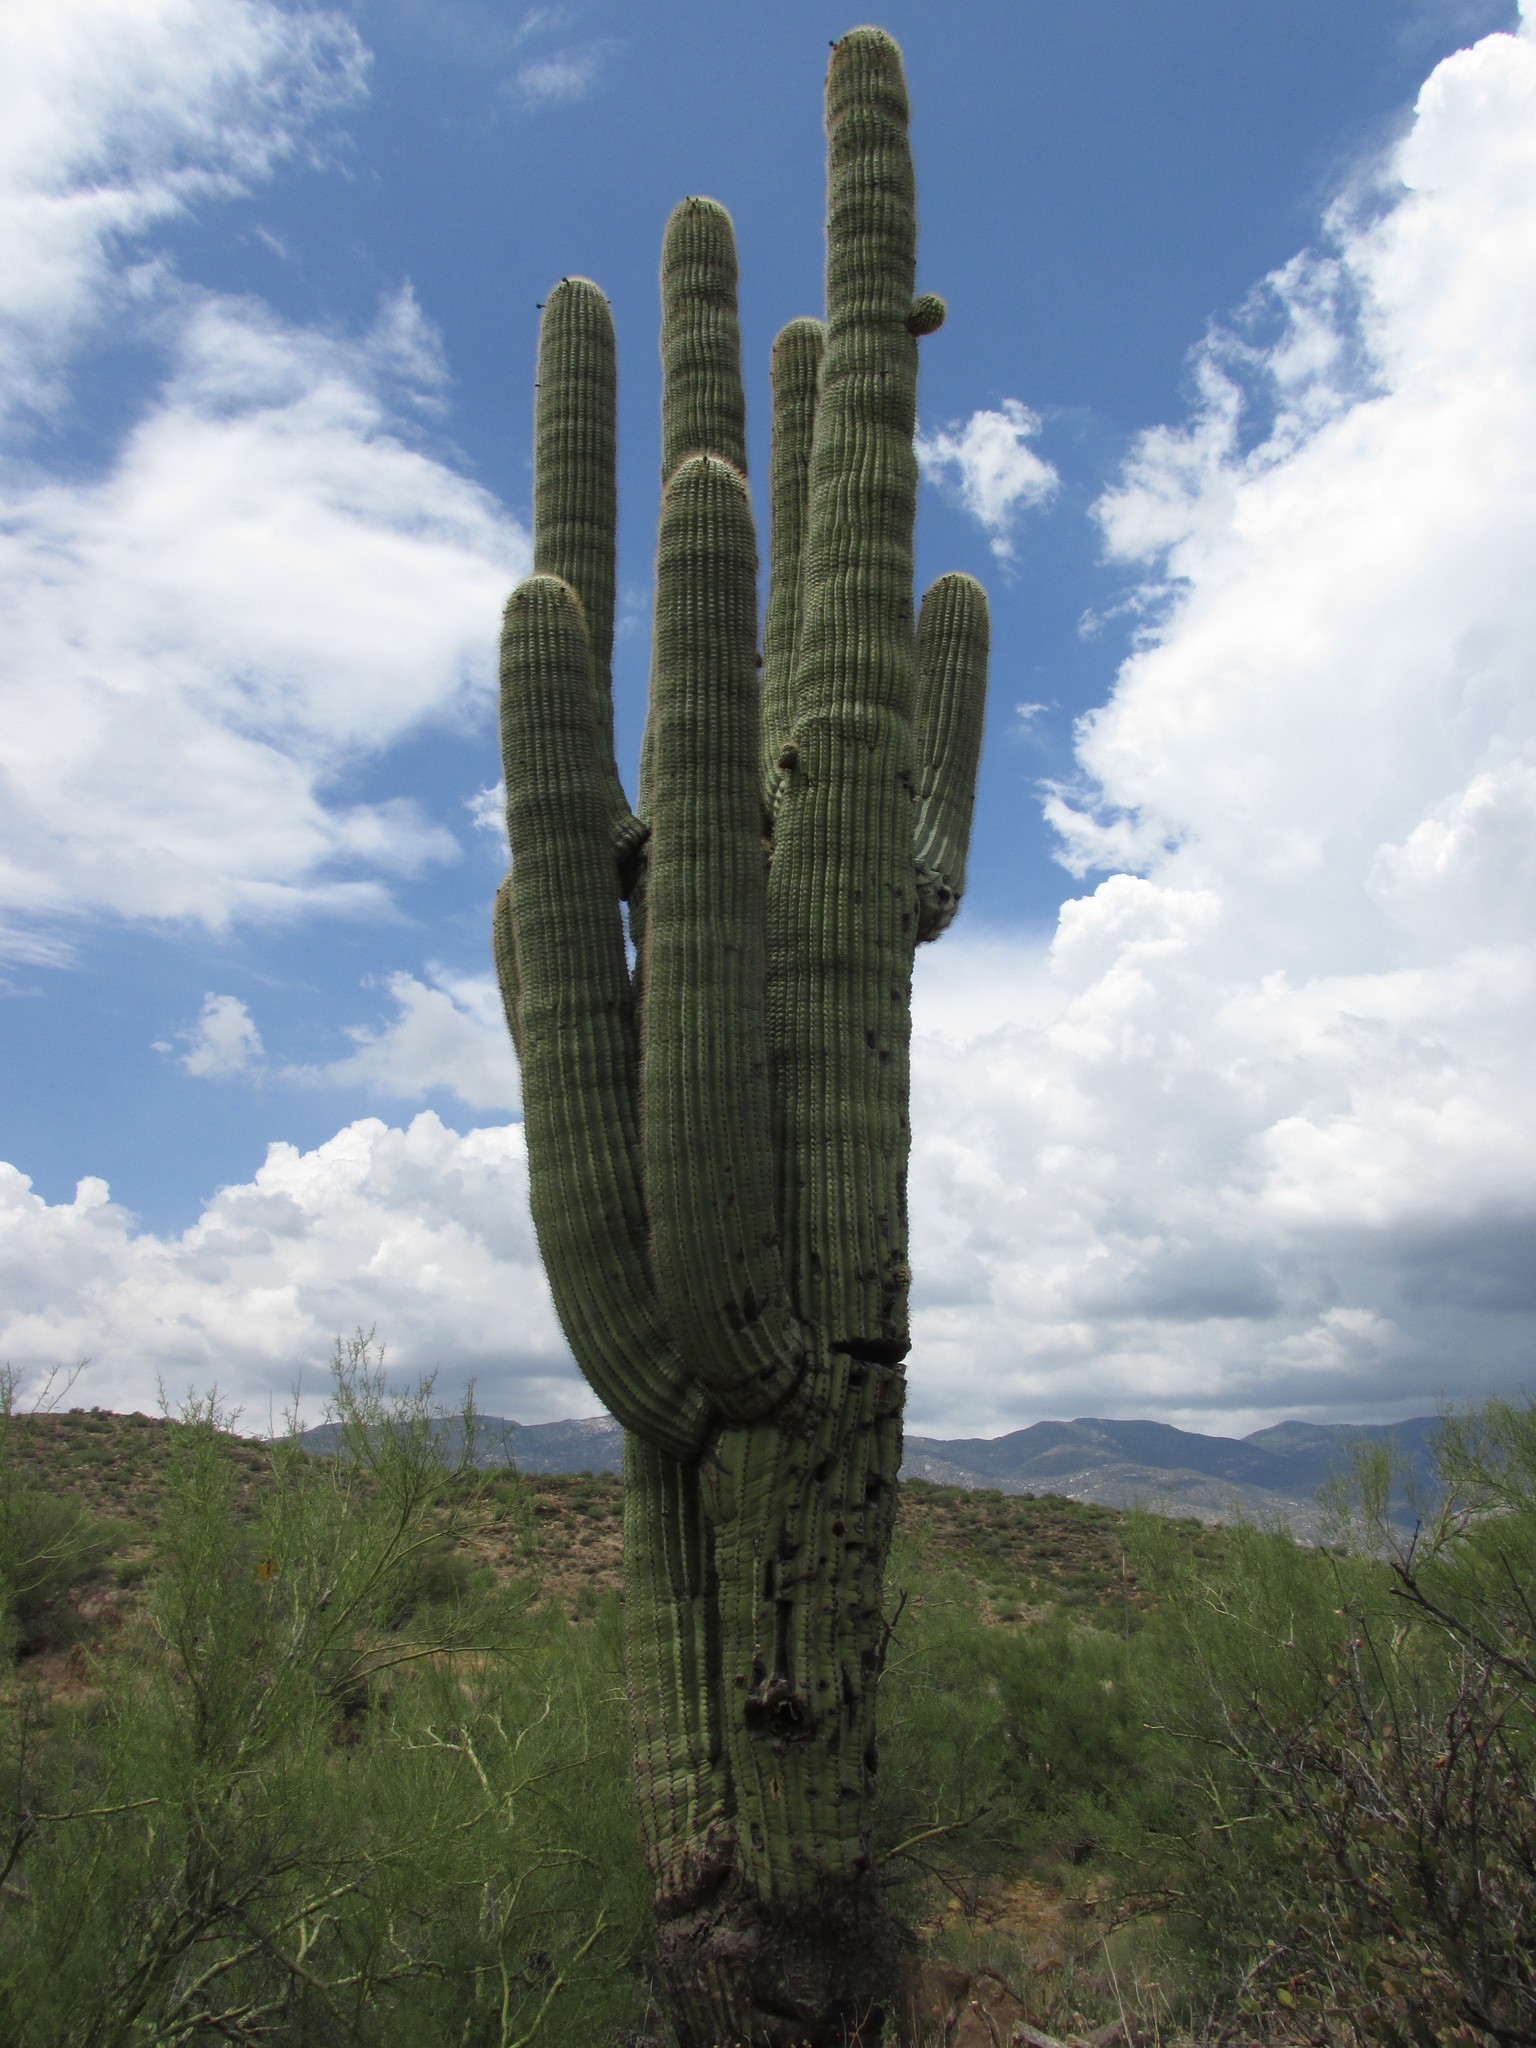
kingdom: Plantae
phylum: Tracheophyta
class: Magnoliopsida
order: Caryophyllales
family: Cactaceae
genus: Carnegiea
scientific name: Carnegiea gigantea
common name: Saguaro
